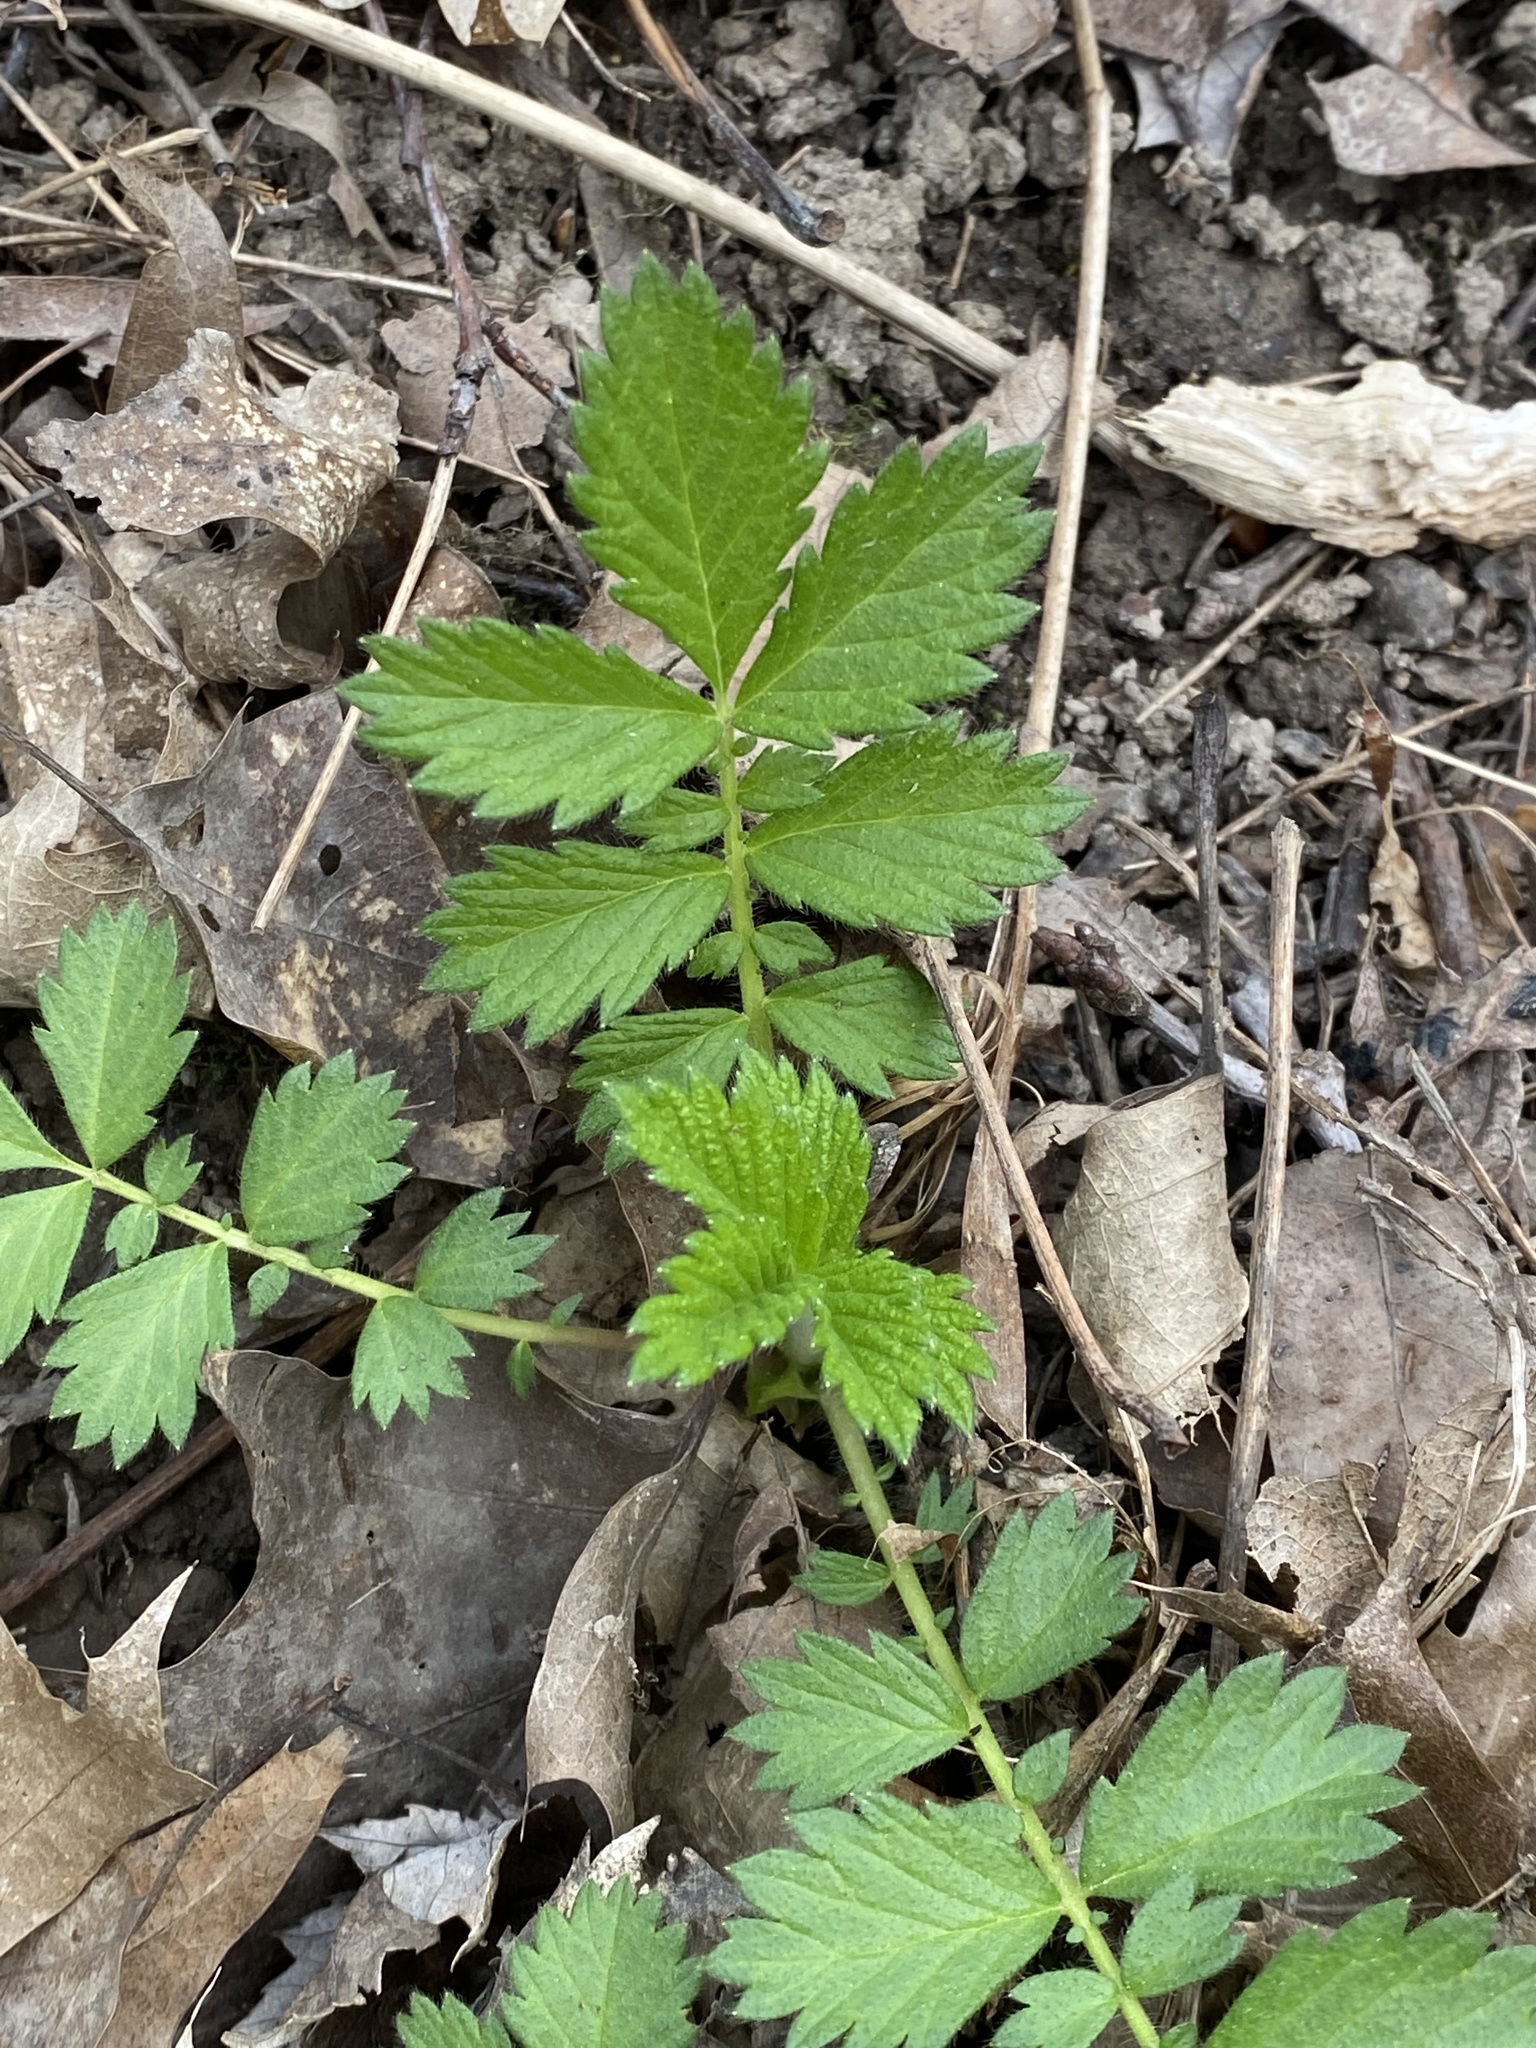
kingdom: Plantae
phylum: Tracheophyta
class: Magnoliopsida
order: Rosales
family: Rosaceae
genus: Agrimonia
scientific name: Agrimonia parviflora
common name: Harvest-lice
